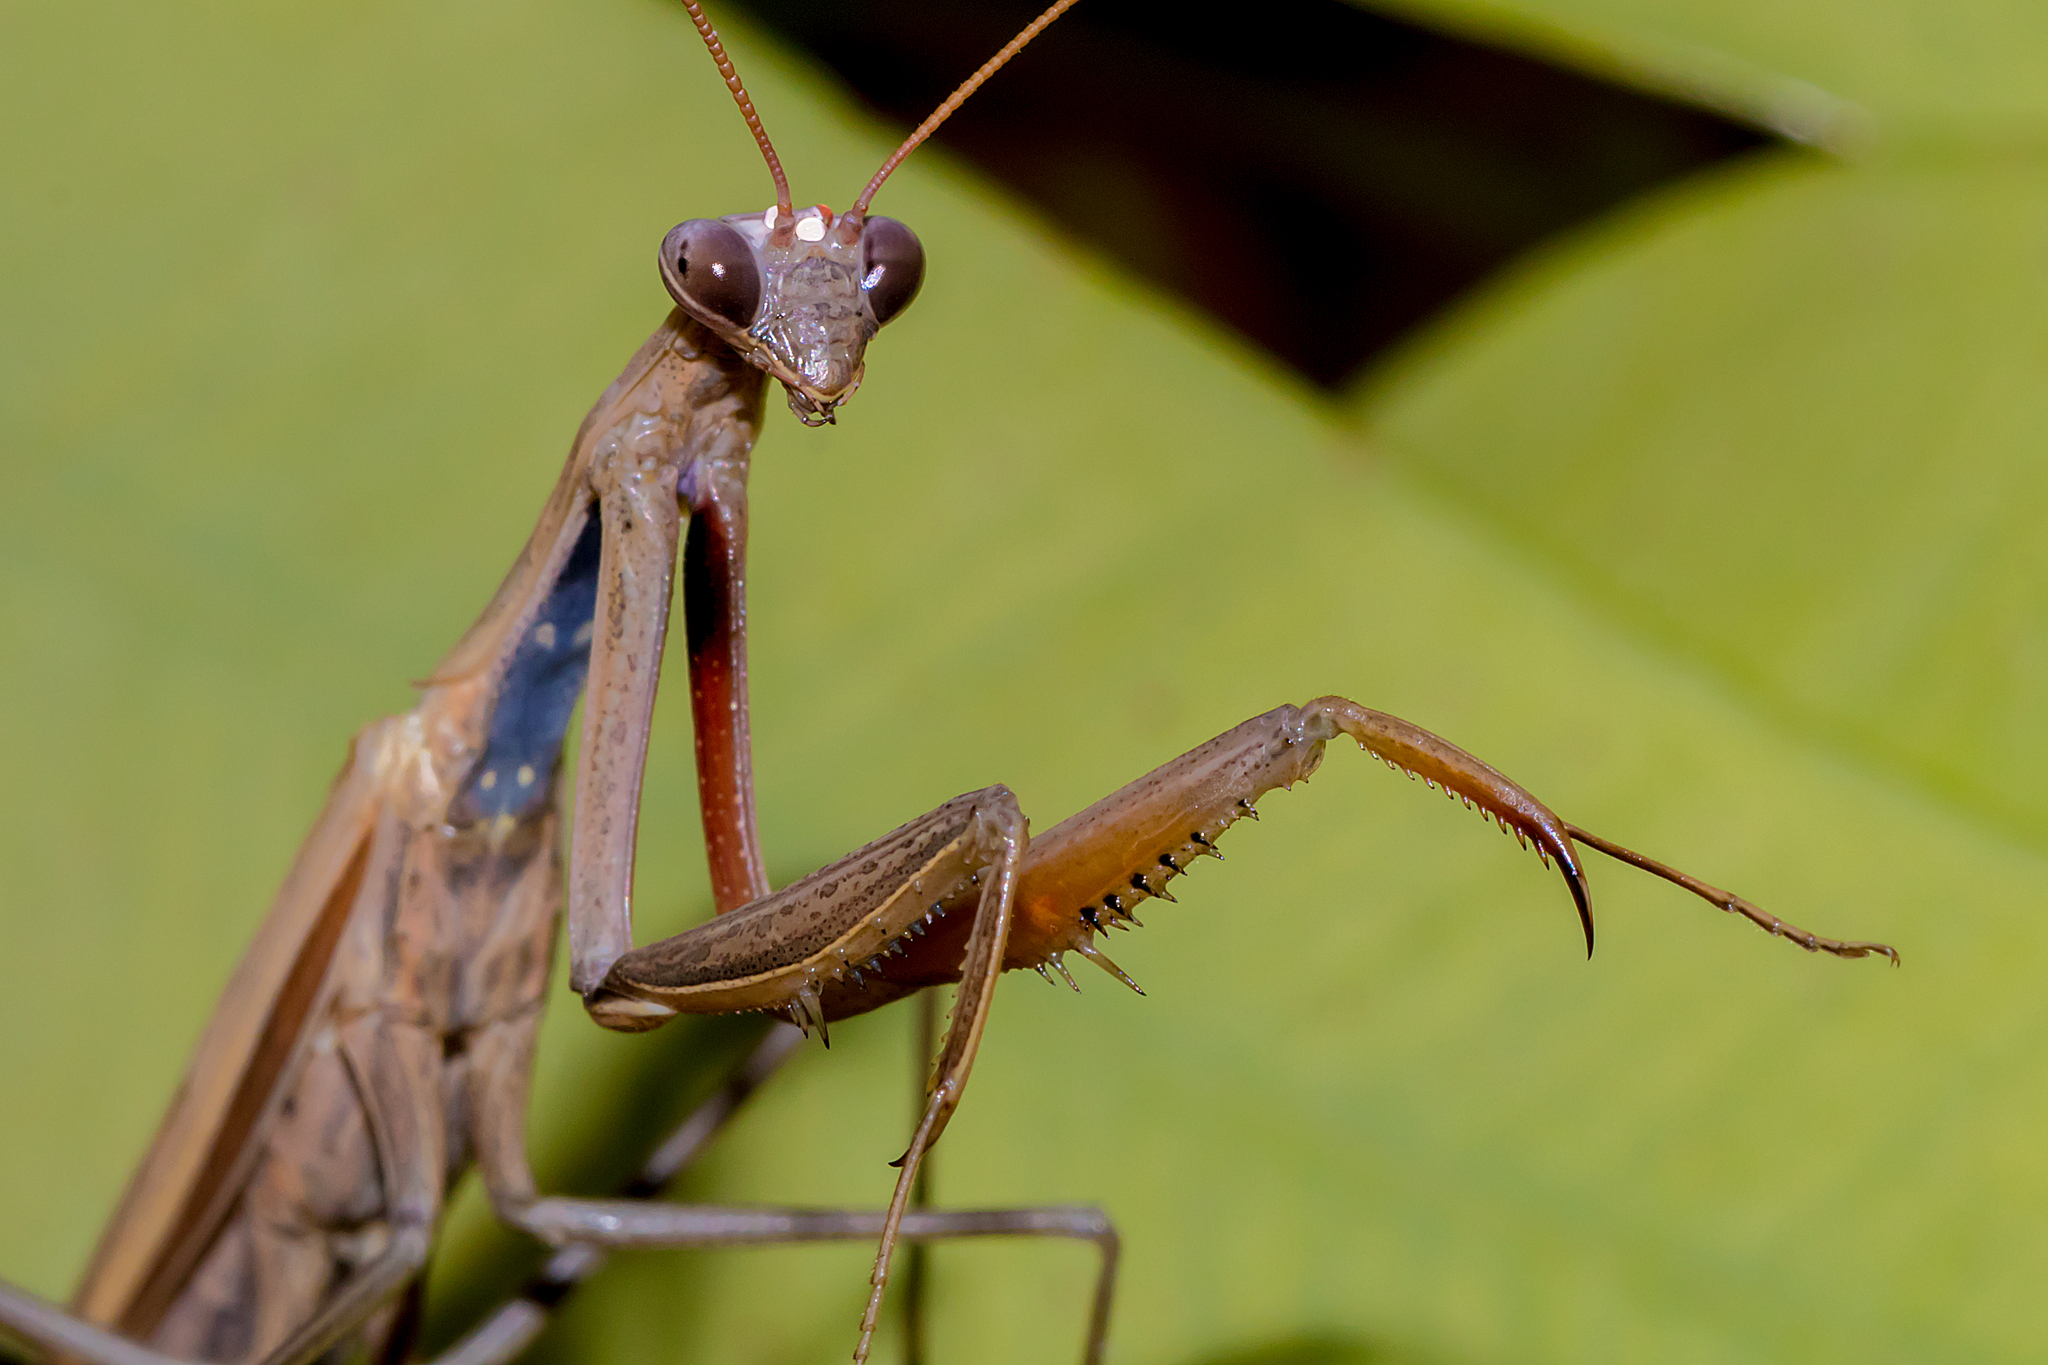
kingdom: Animalia
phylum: Arthropoda
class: Insecta
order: Mantodea
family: Mantidae
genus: Mantis
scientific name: Mantis octospilota
